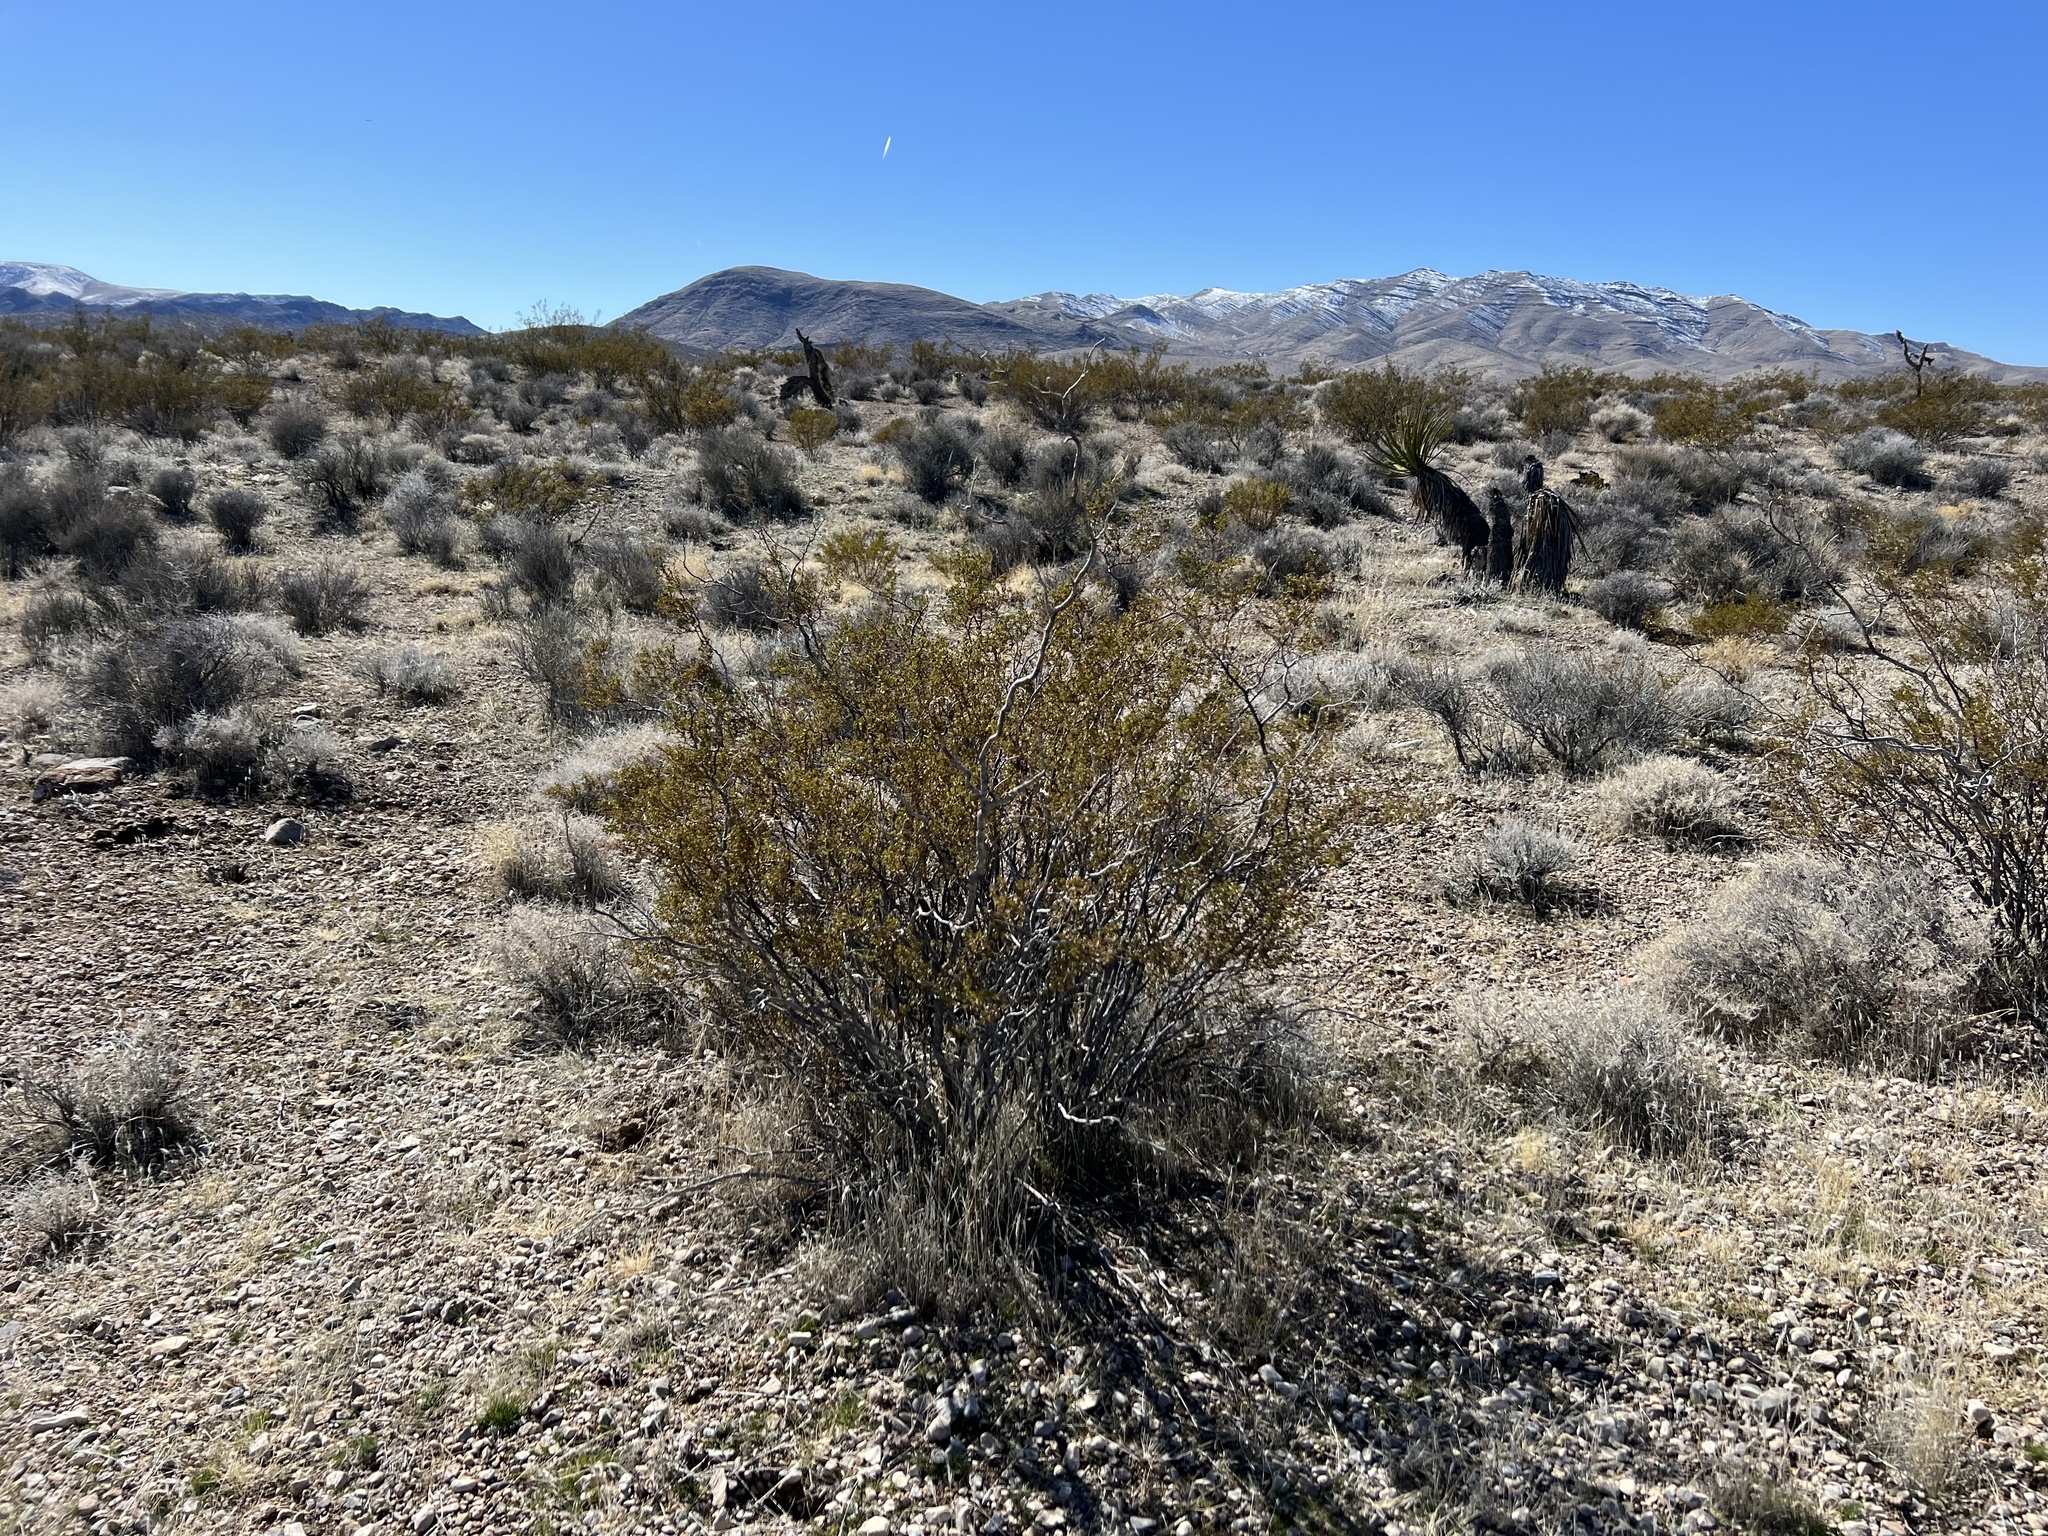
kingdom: Plantae
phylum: Tracheophyta
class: Magnoliopsida
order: Zygophyllales
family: Zygophyllaceae
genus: Larrea
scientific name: Larrea tridentata
